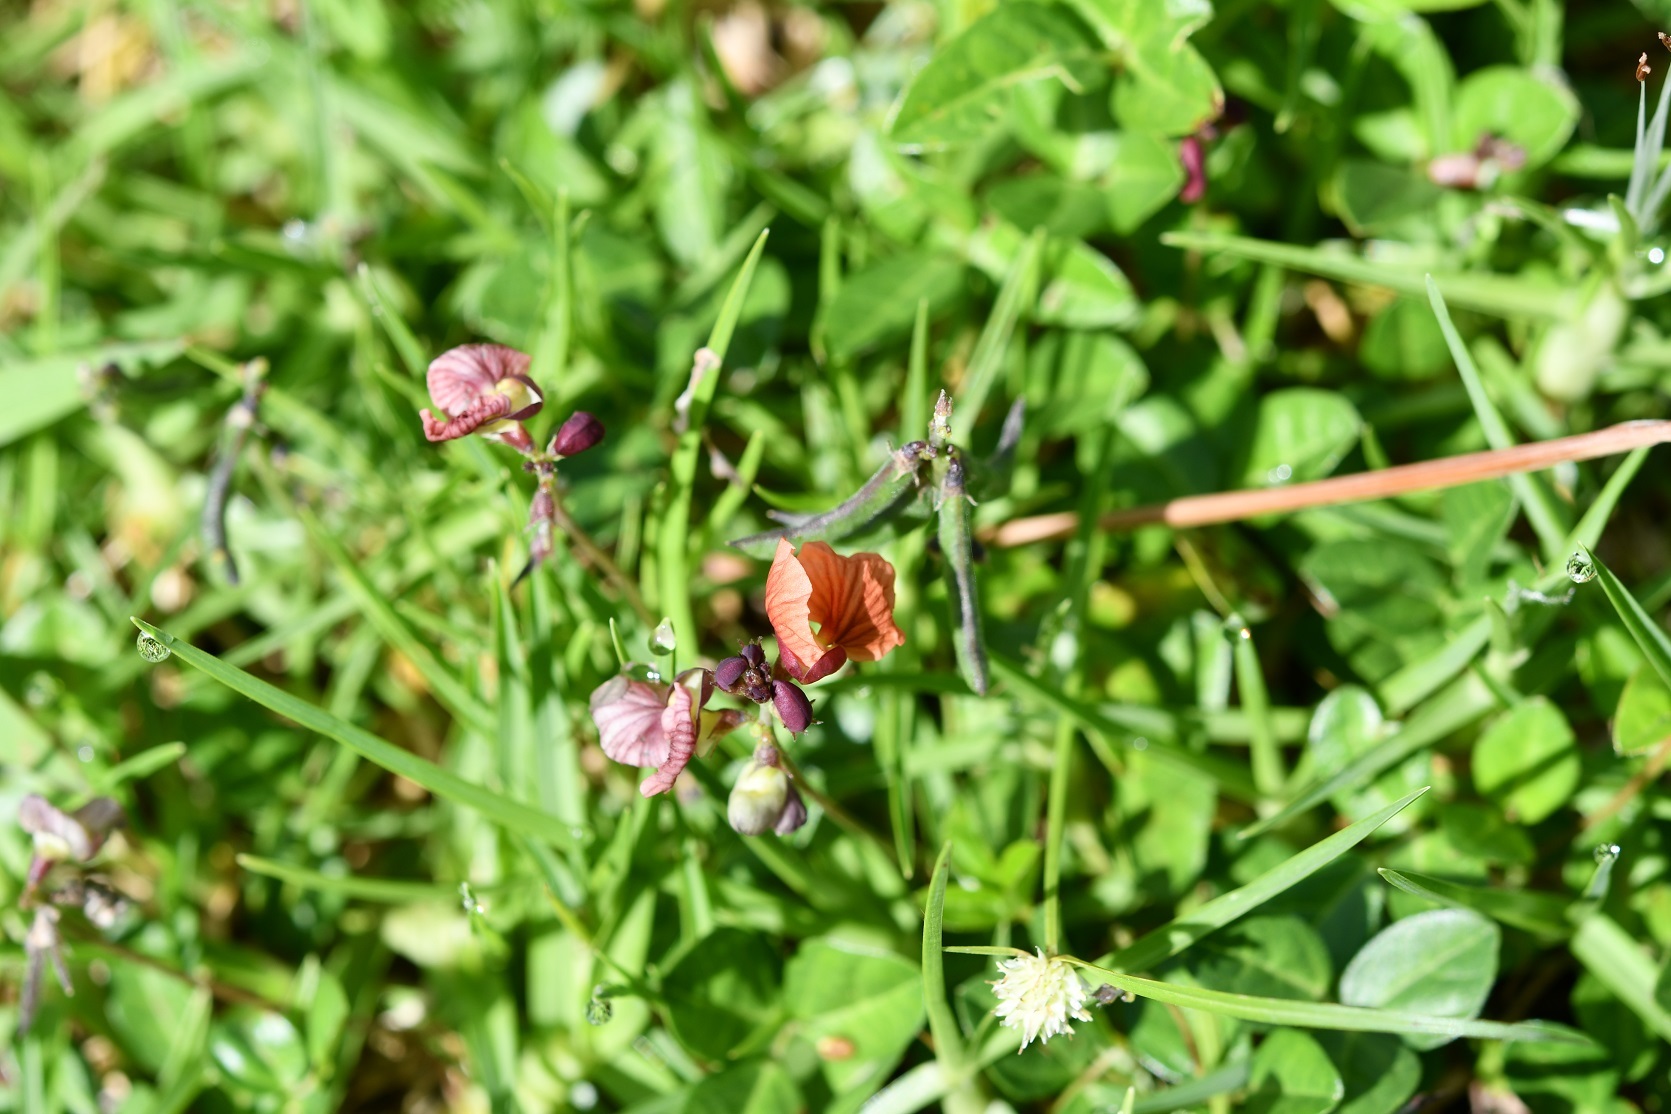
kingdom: Plantae
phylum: Tracheophyta
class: Magnoliopsida
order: Fabales
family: Fabaceae
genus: Macroptilium
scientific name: Macroptilium gibbosifolium
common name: Variableleaf bushbean
